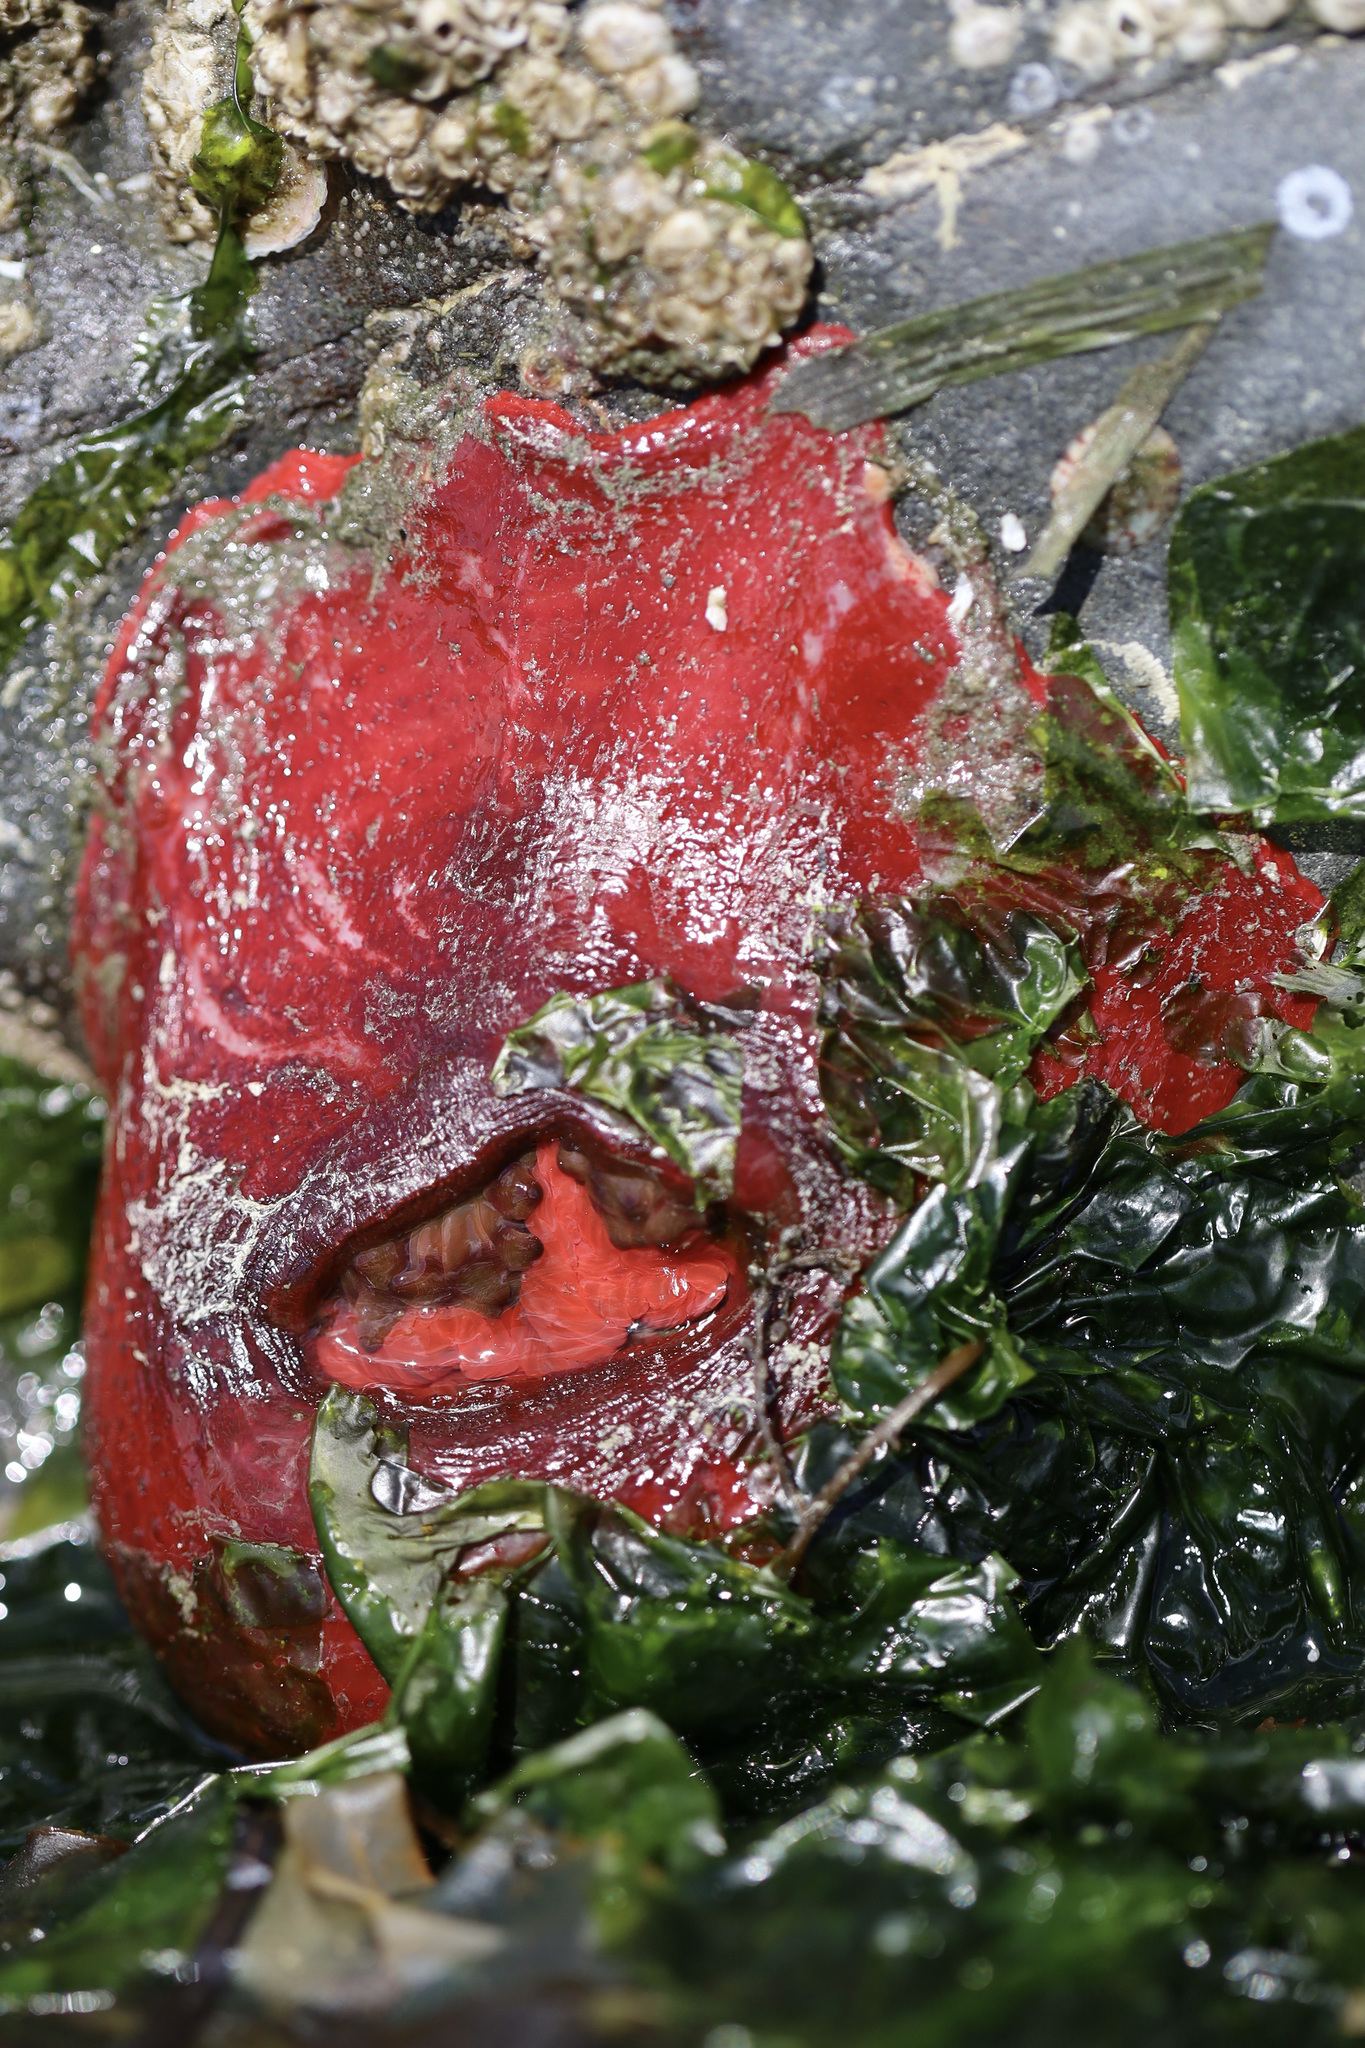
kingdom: Animalia
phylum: Cnidaria
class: Anthozoa
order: Actiniaria
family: Actiniidae
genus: Urticina
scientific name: Urticina grebelnyi
